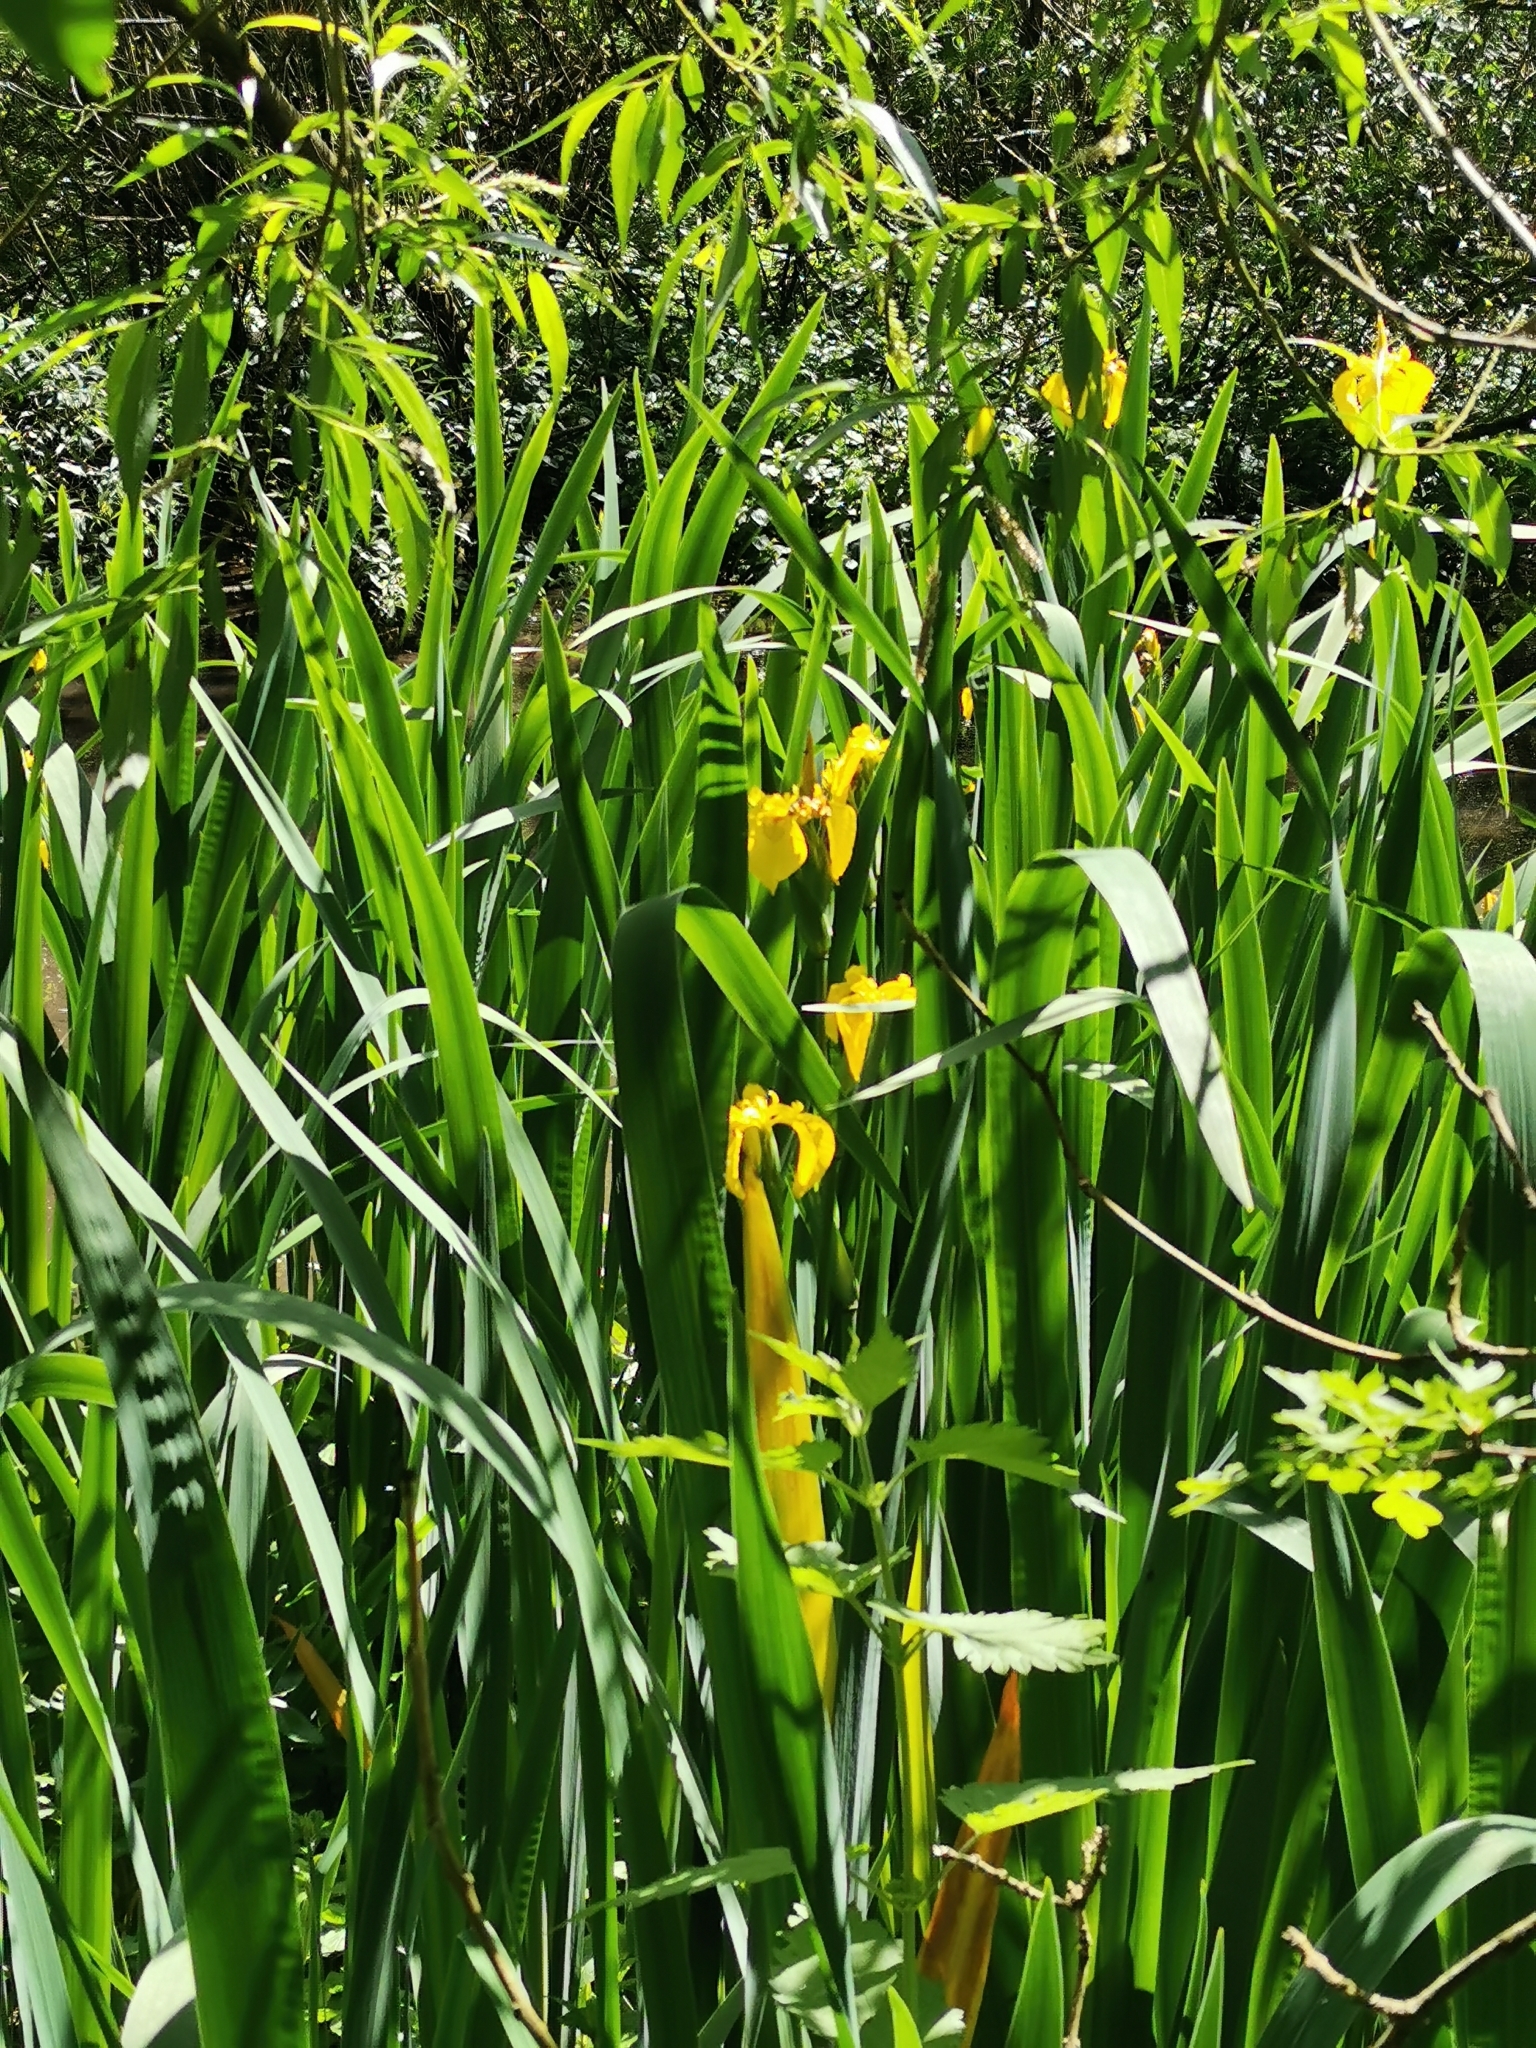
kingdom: Plantae
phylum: Tracheophyta
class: Liliopsida
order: Asparagales
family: Iridaceae
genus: Iris
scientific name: Iris pseudacorus
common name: Yellow flag
